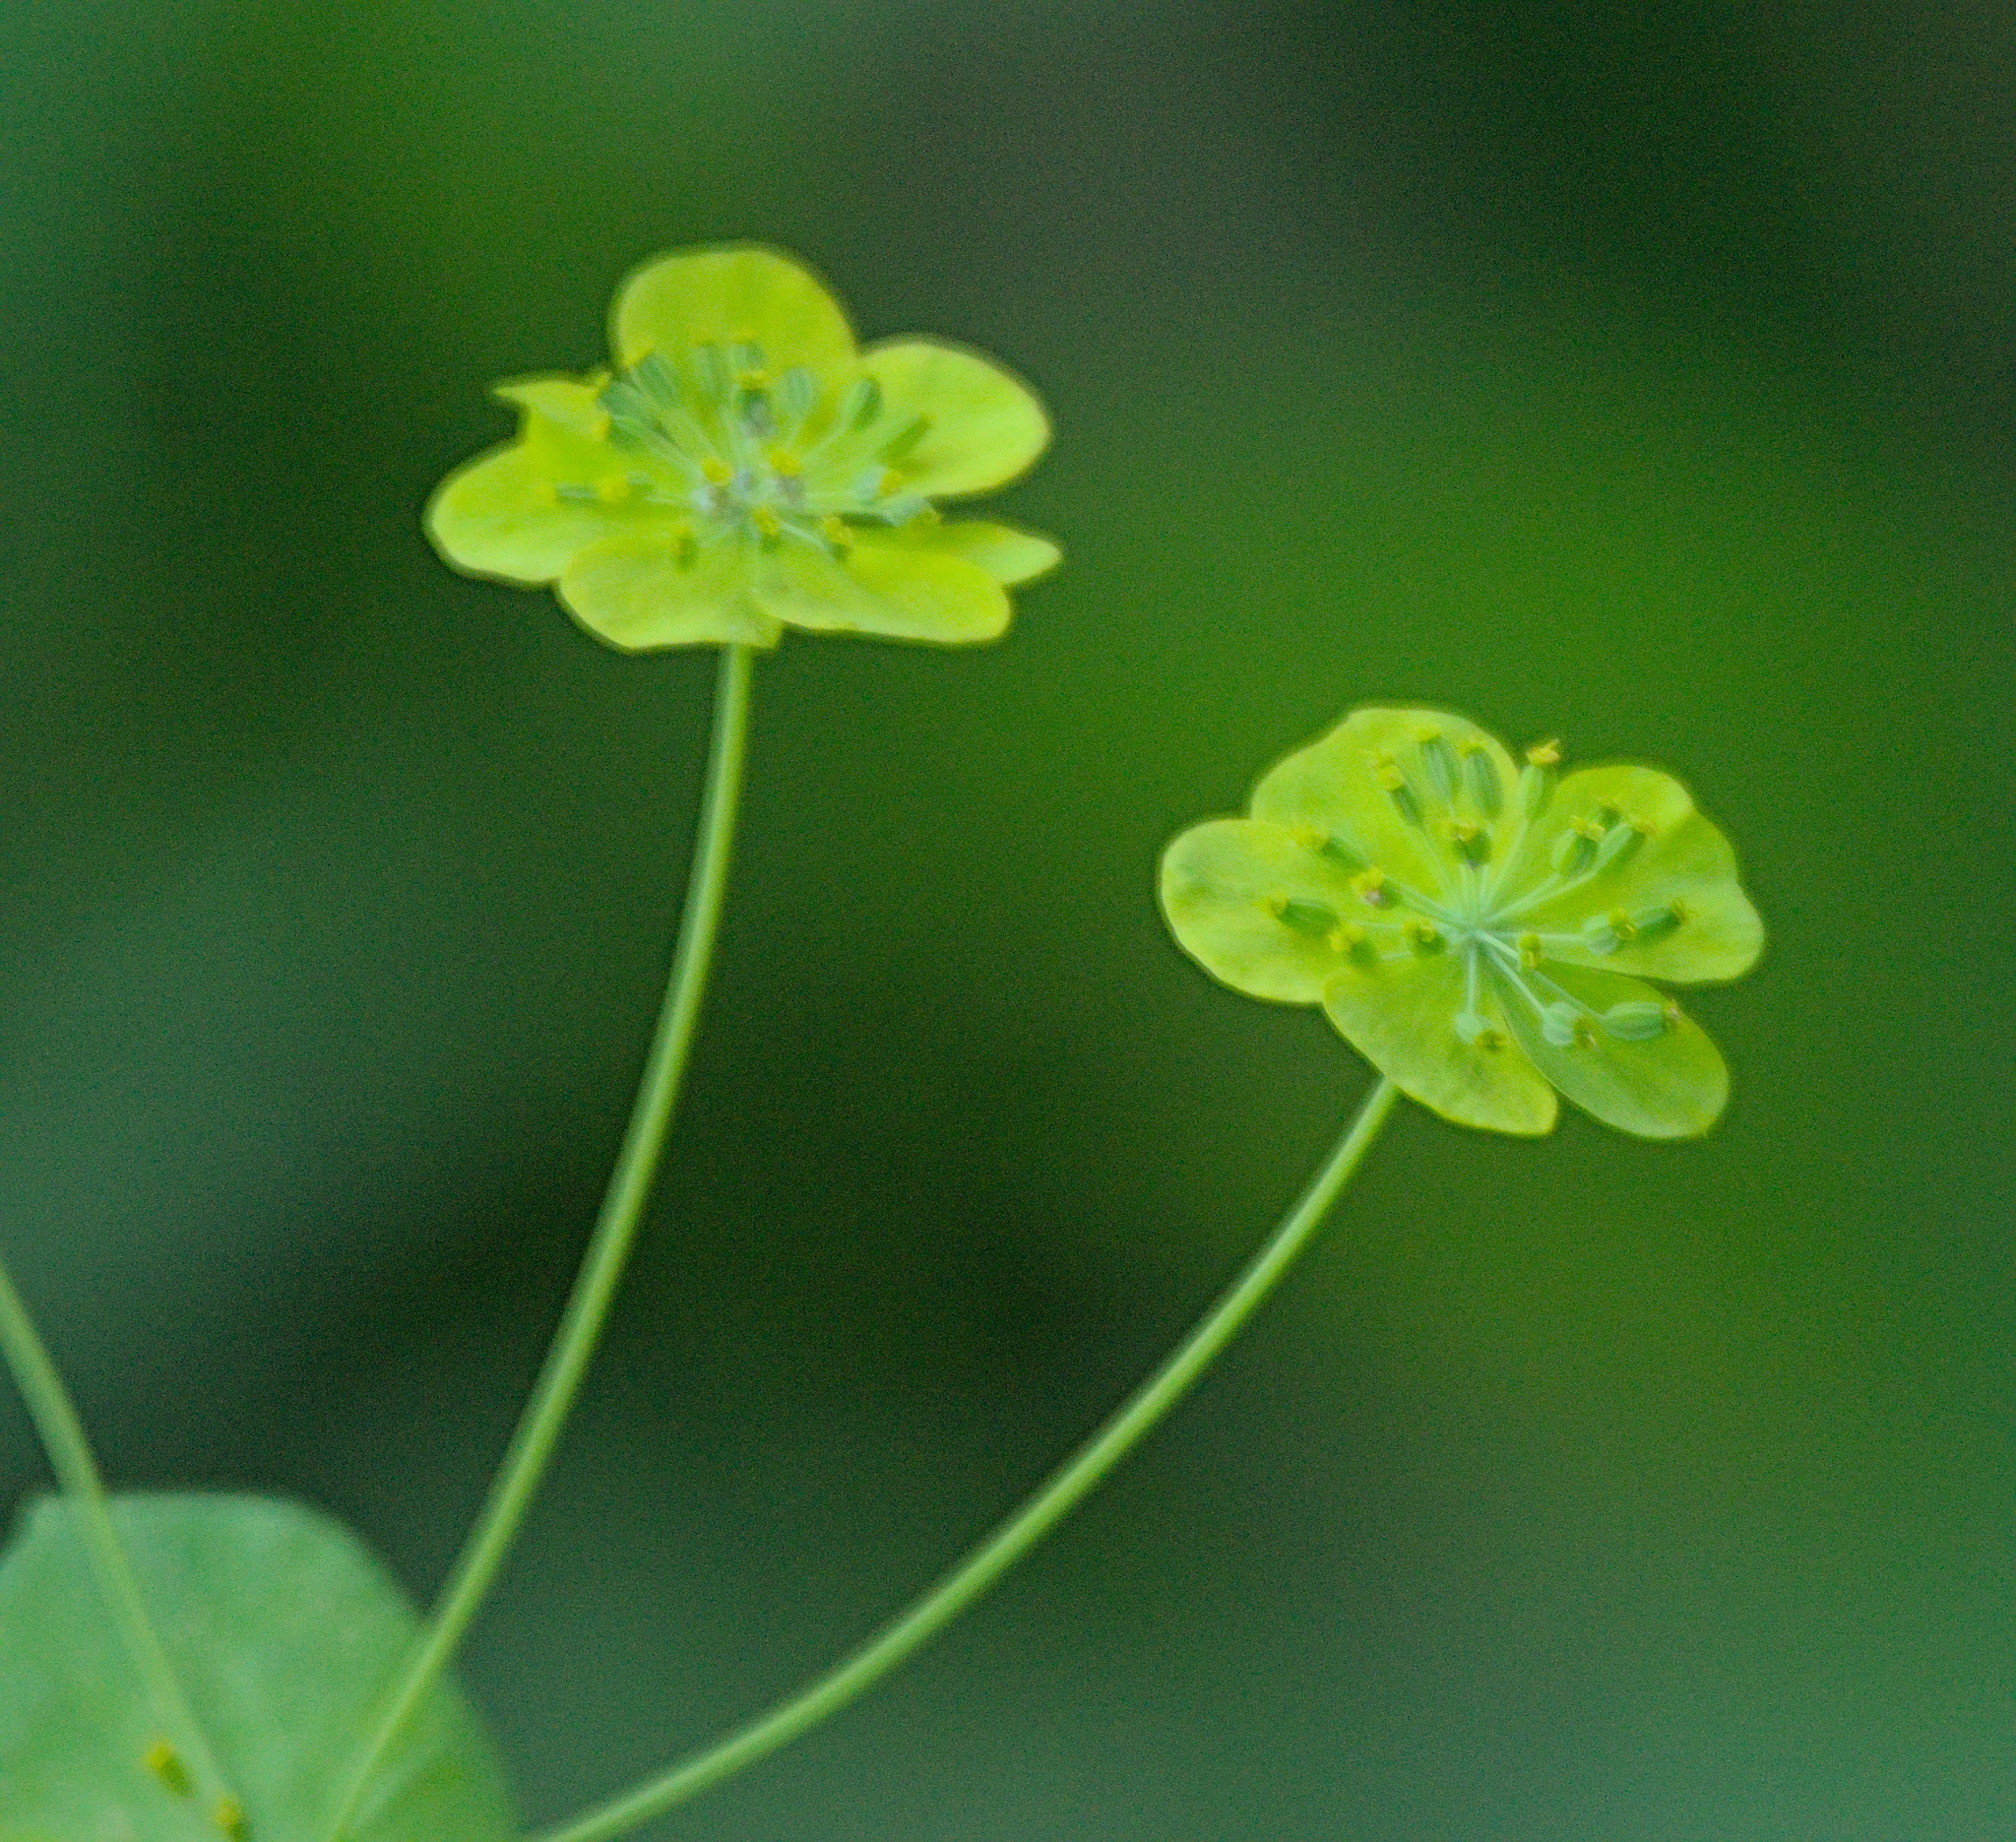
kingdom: Plantae
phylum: Tracheophyta
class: Magnoliopsida
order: Apiales
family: Apiaceae
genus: Bupleurum
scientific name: Bupleurum aureum
